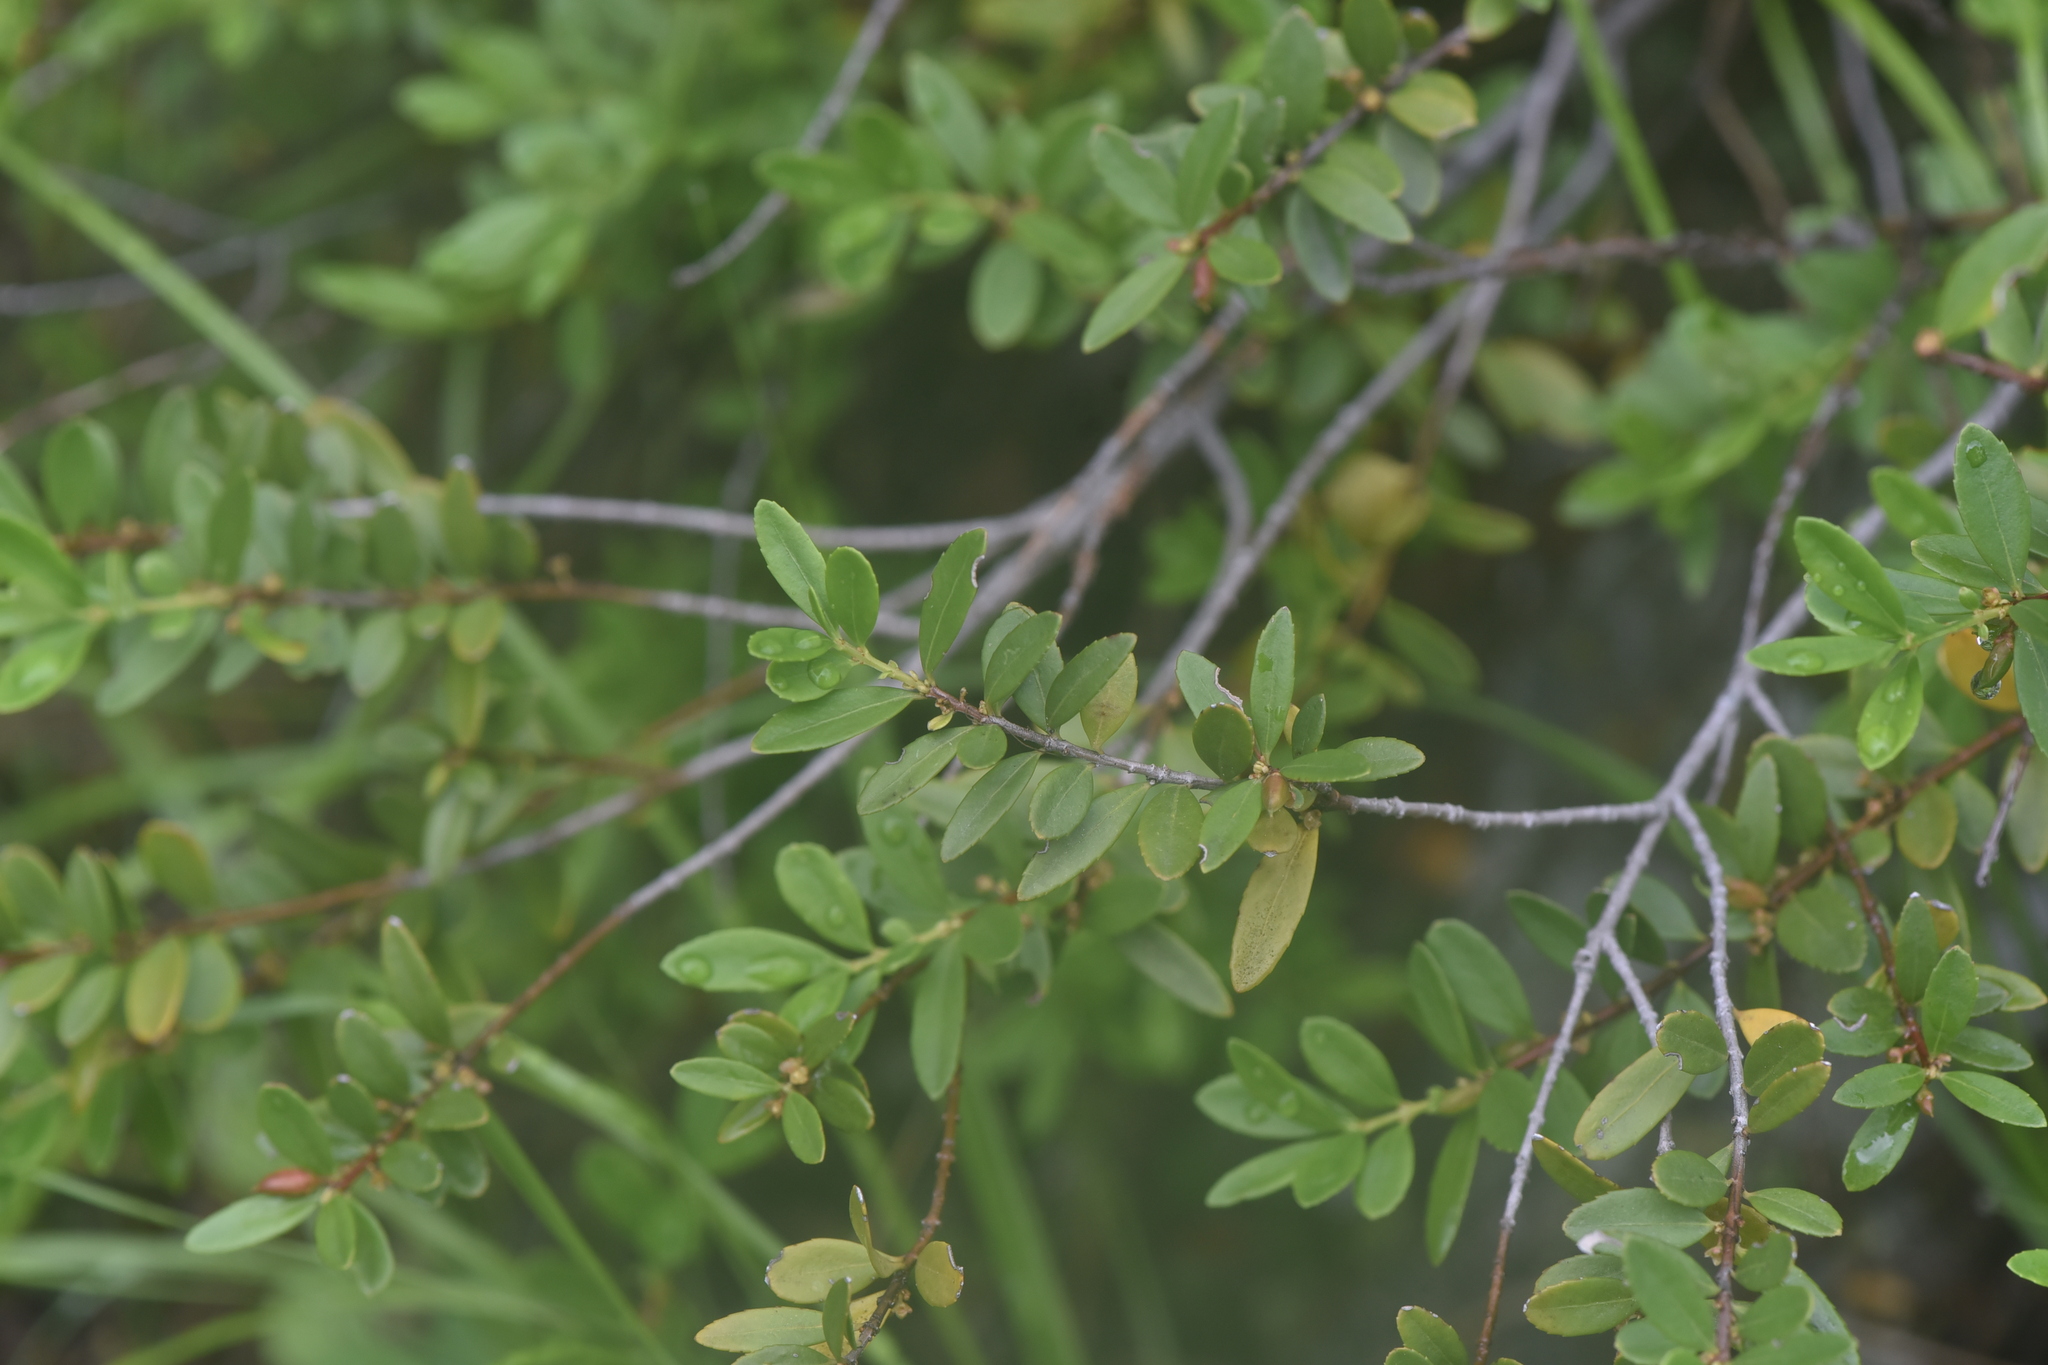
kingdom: Plantae
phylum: Tracheophyta
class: Magnoliopsida
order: Celastrales
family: Celastraceae
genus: Paxistima
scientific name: Paxistima myrsinites
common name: Mountain-lover
